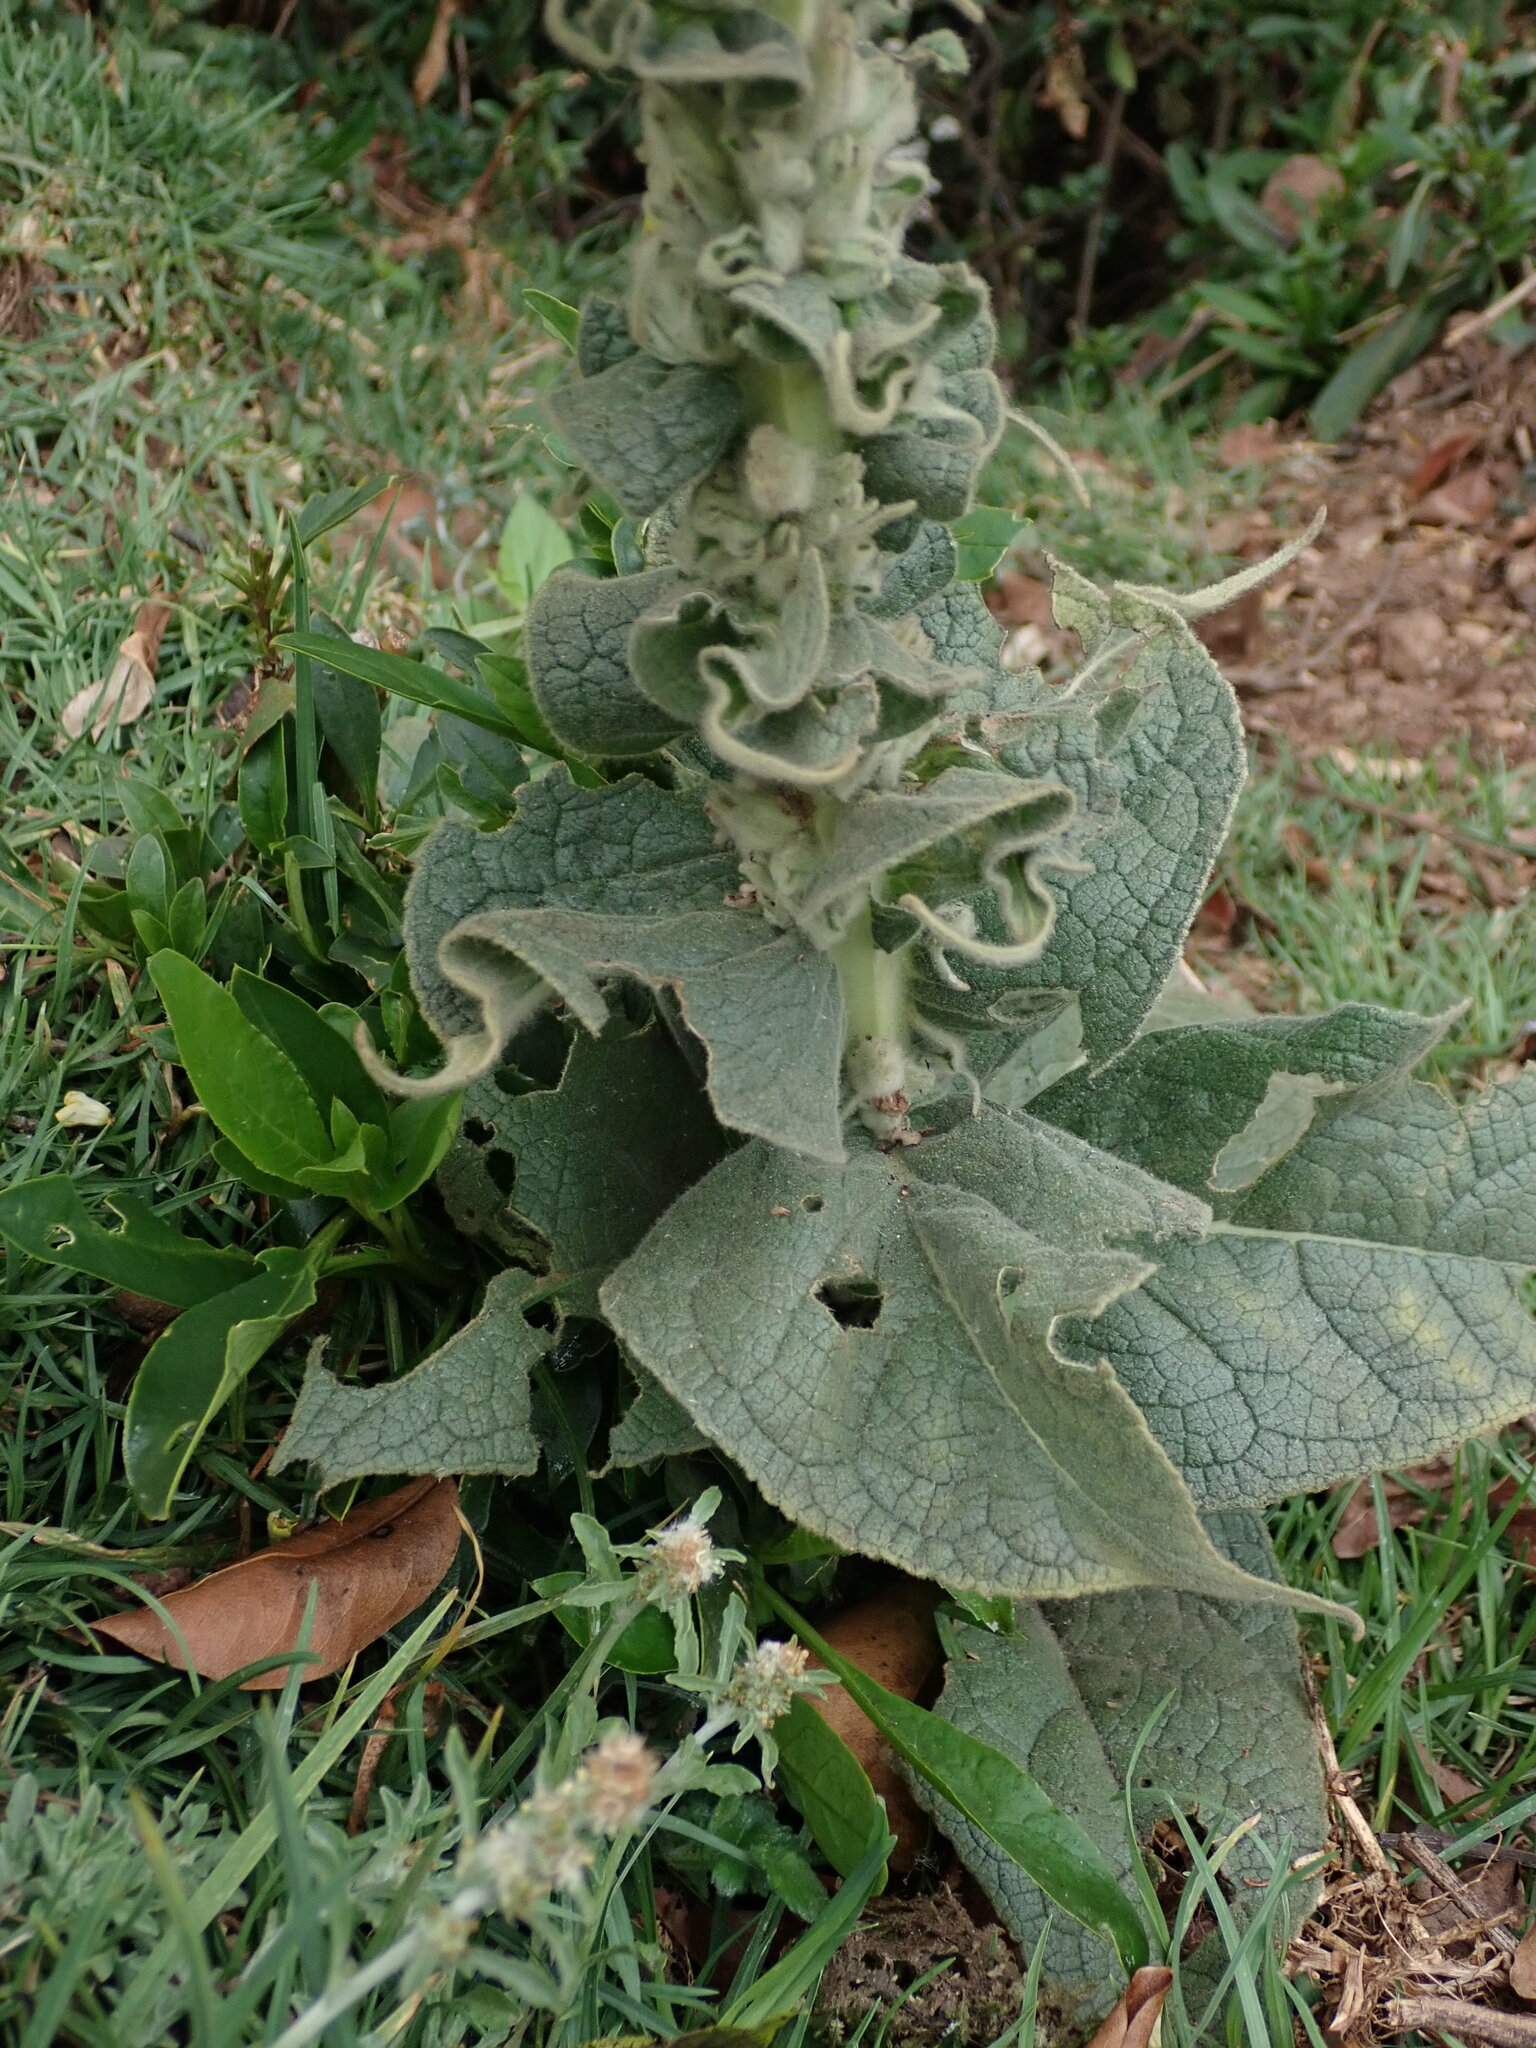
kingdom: Plantae
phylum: Tracheophyta
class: Magnoliopsida
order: Lamiales
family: Scrophulariaceae
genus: Verbascum
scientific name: Verbascum thapsus
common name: Common mullein
